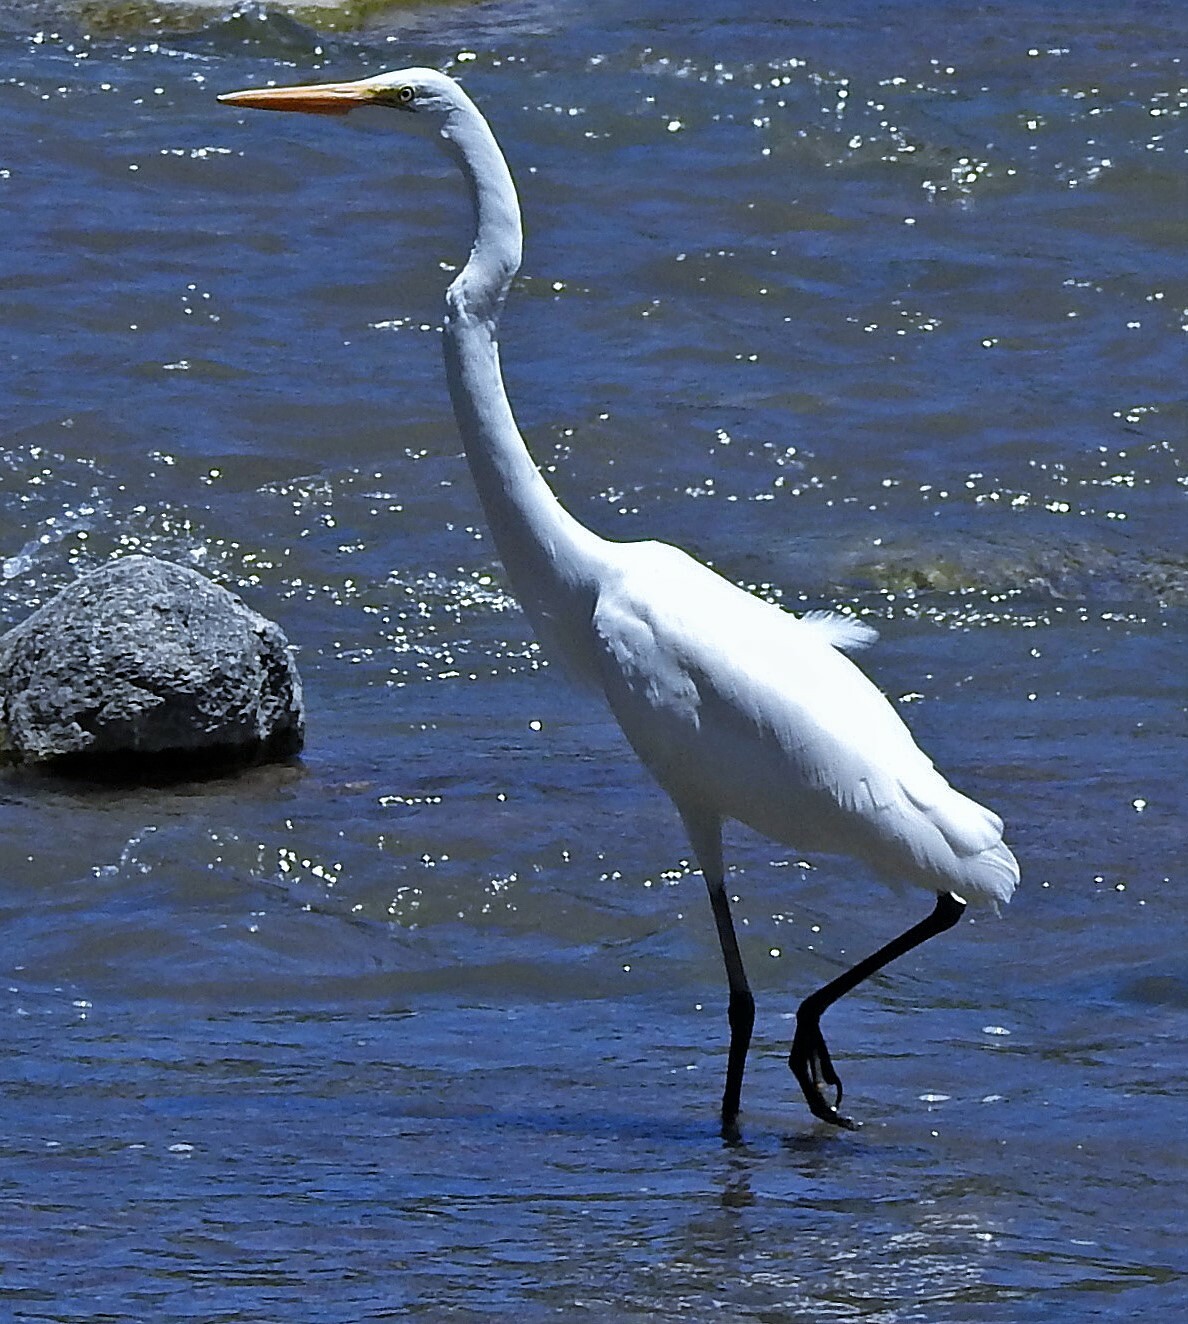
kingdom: Animalia
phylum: Chordata
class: Aves
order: Pelecaniformes
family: Ardeidae
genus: Ardea
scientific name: Ardea alba
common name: Great egret
